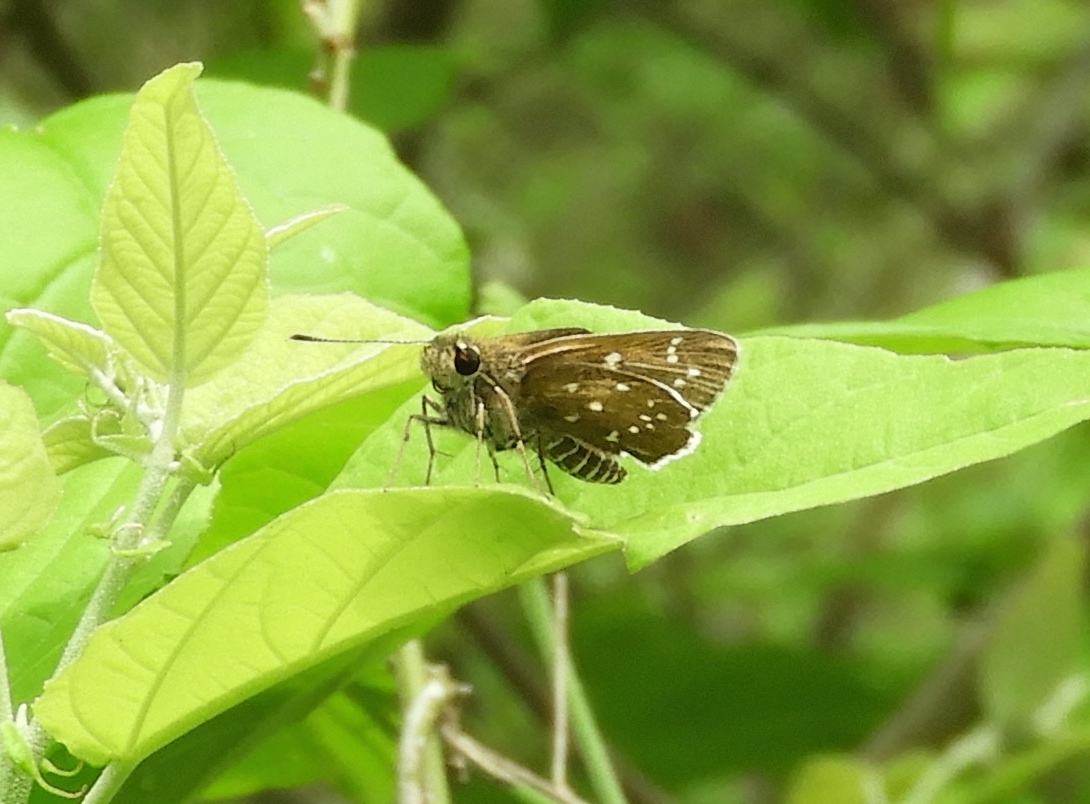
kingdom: Animalia
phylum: Arthropoda
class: Insecta
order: Lepidoptera
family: Hesperiidae
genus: Amblyscirtes
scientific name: Amblyscirtes
